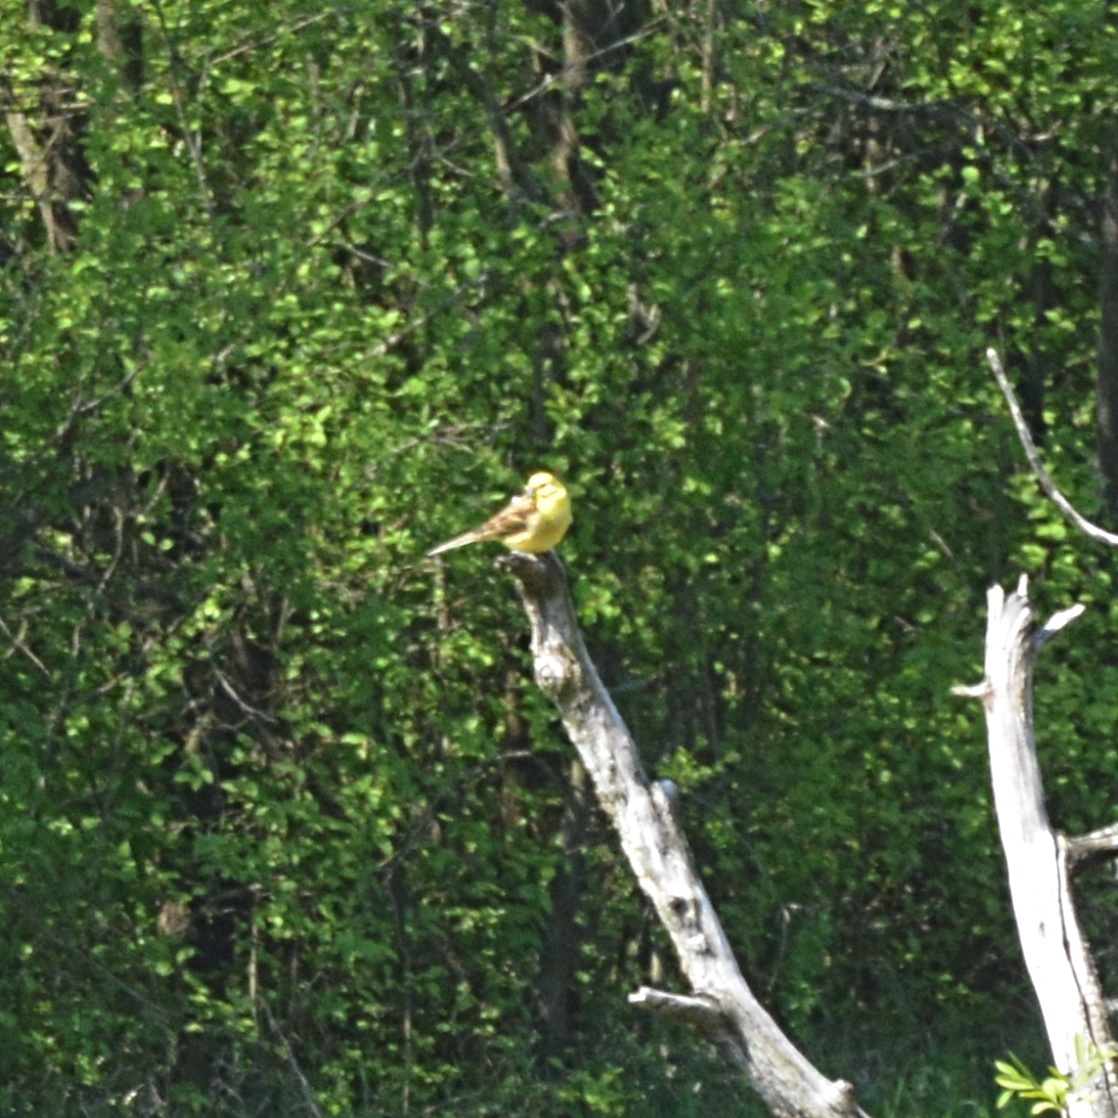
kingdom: Animalia
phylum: Chordata
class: Aves
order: Passeriformes
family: Emberizidae
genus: Emberiza
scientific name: Emberiza citrinella
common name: Yellowhammer
